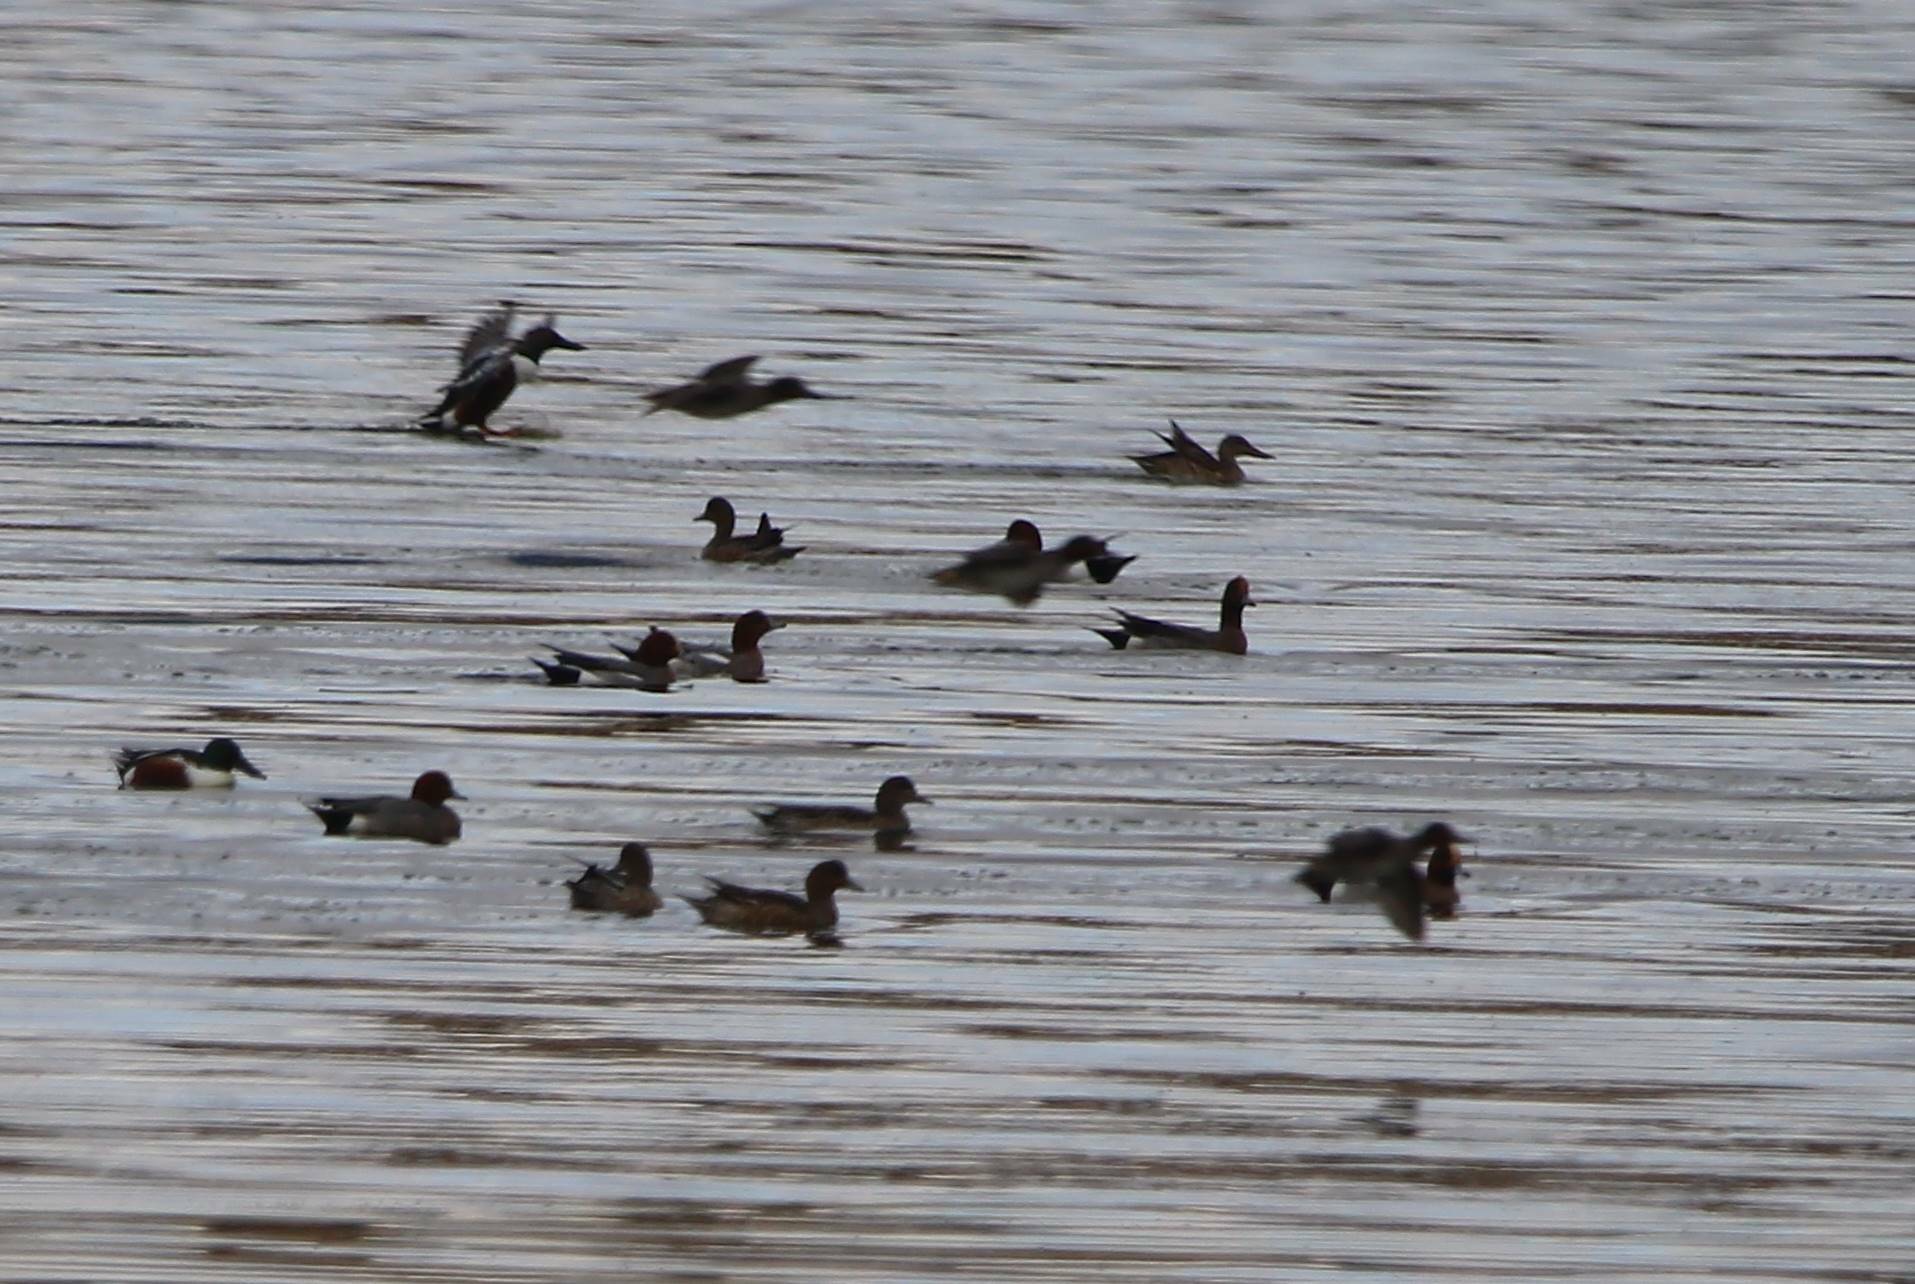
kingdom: Animalia
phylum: Chordata
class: Aves
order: Anseriformes
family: Anatidae
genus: Mareca
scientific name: Mareca penelope
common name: Eurasian wigeon
